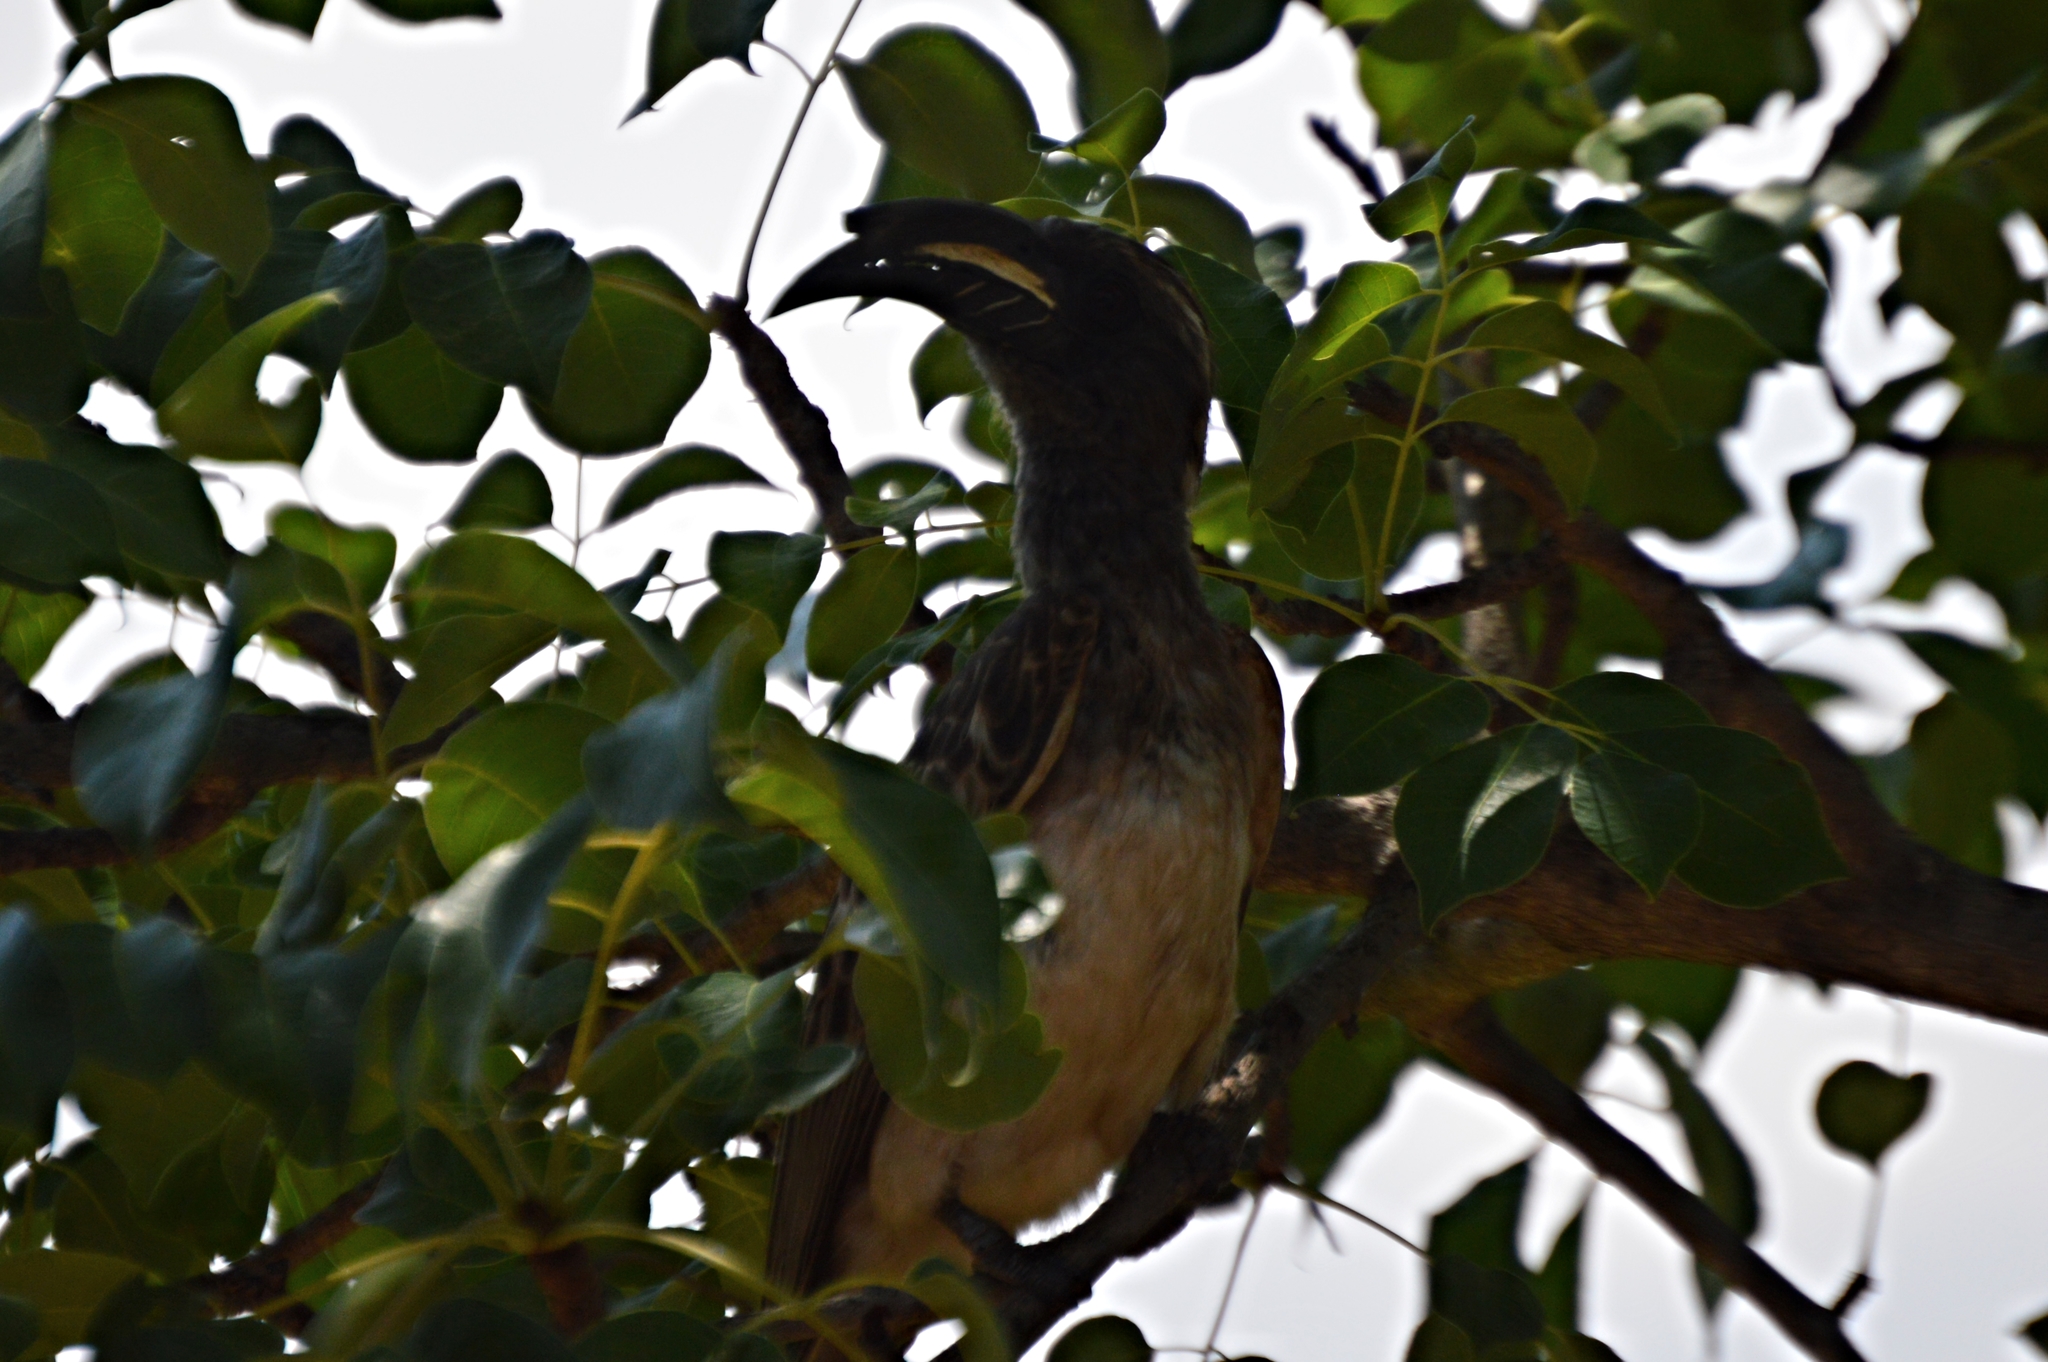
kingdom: Animalia
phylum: Chordata
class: Aves
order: Bucerotiformes
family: Bucerotidae
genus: Lophoceros
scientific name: Lophoceros nasutus
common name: African grey hornbill
